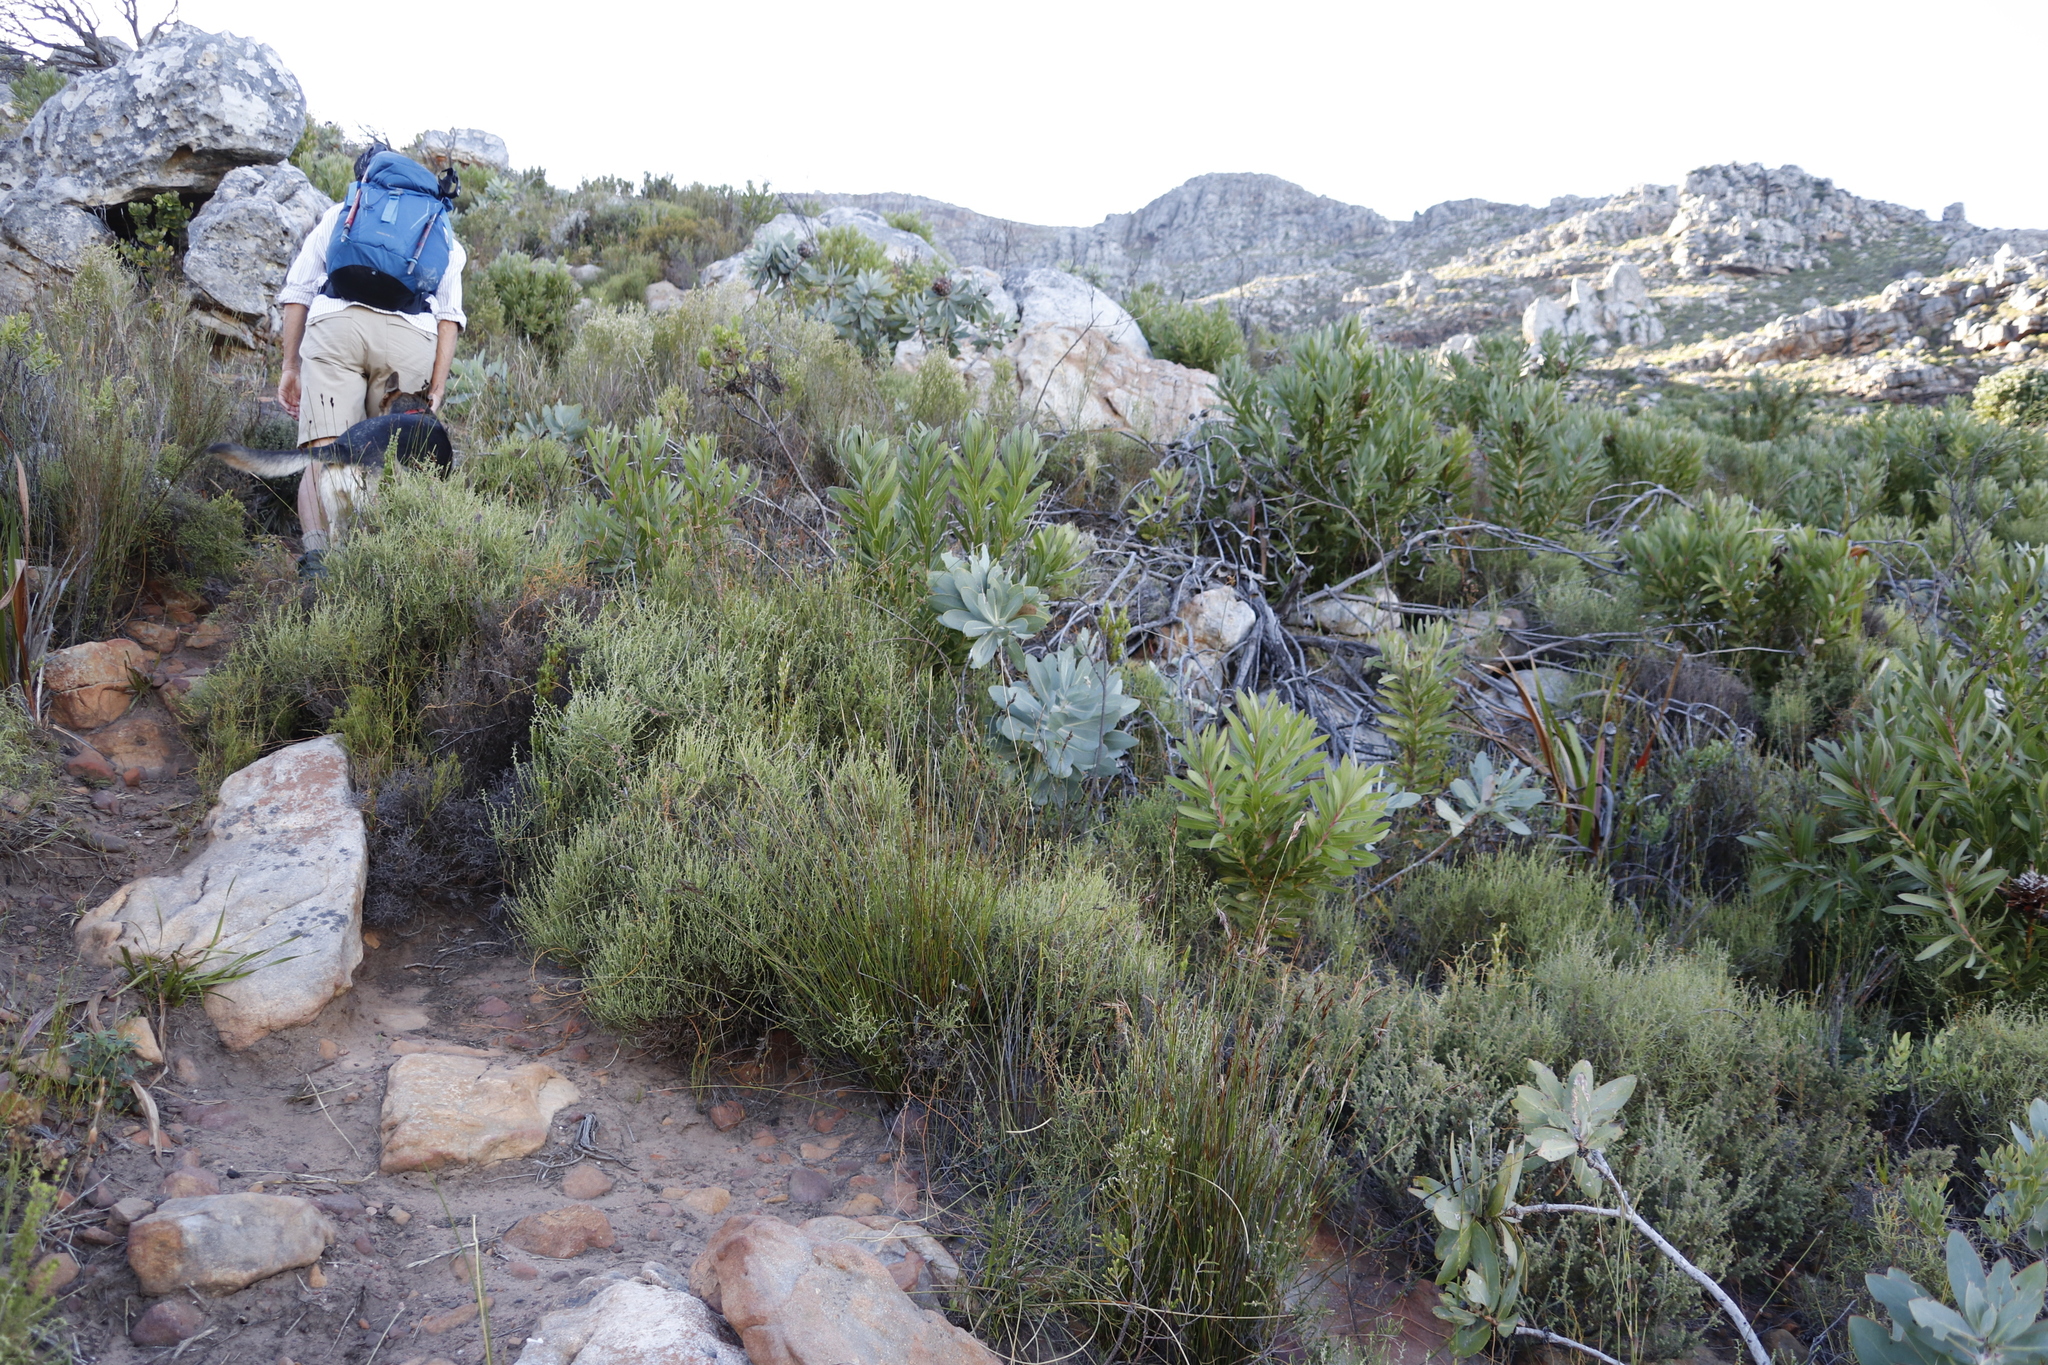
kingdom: Plantae
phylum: Tracheophyta
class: Magnoliopsida
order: Proteales
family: Proteaceae
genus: Protea
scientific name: Protea nitida
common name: Tree protea
